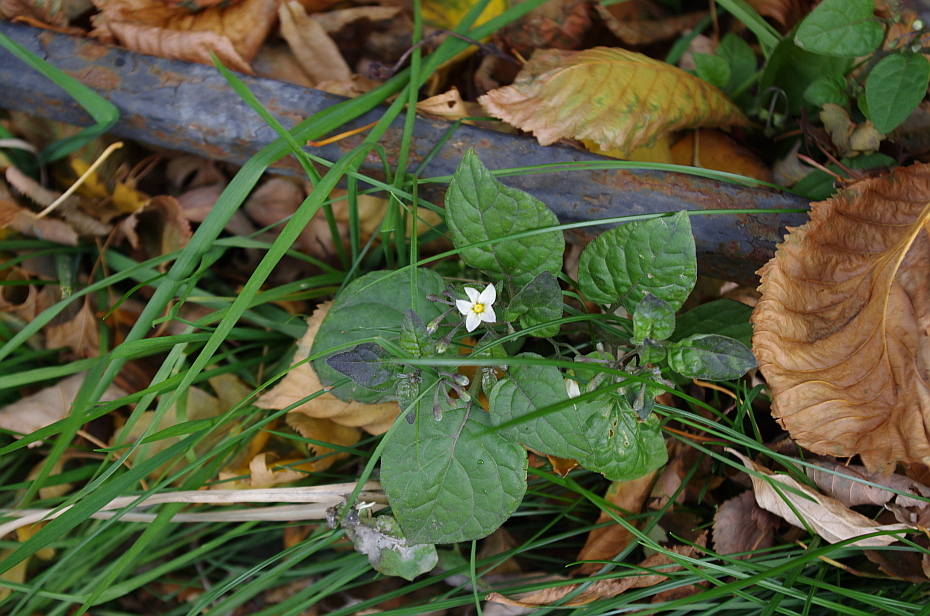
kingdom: Plantae
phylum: Tracheophyta
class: Magnoliopsida
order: Solanales
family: Solanaceae
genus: Solanum
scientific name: Solanum nigrum
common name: Black nightshade
